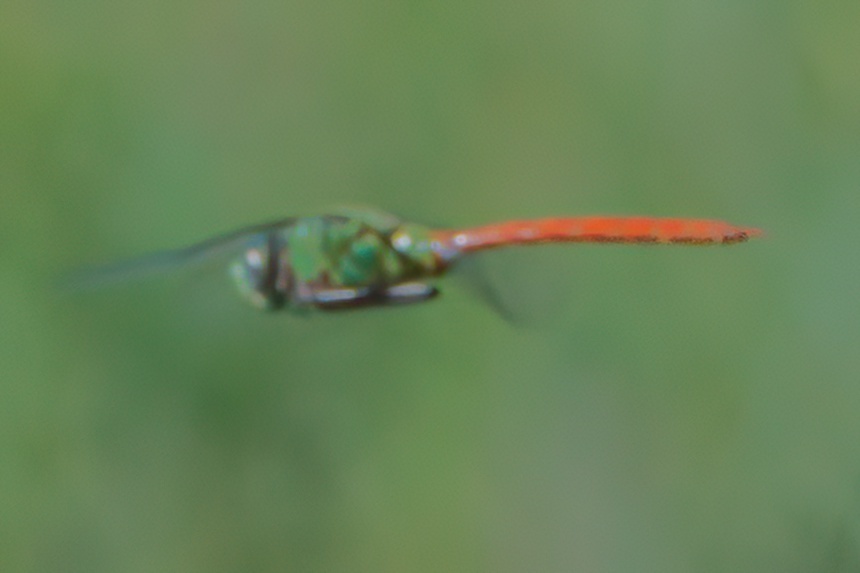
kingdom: Animalia
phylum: Arthropoda
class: Insecta
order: Odonata
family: Aeshnidae
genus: Anax
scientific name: Anax longipes
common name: Comet darner
